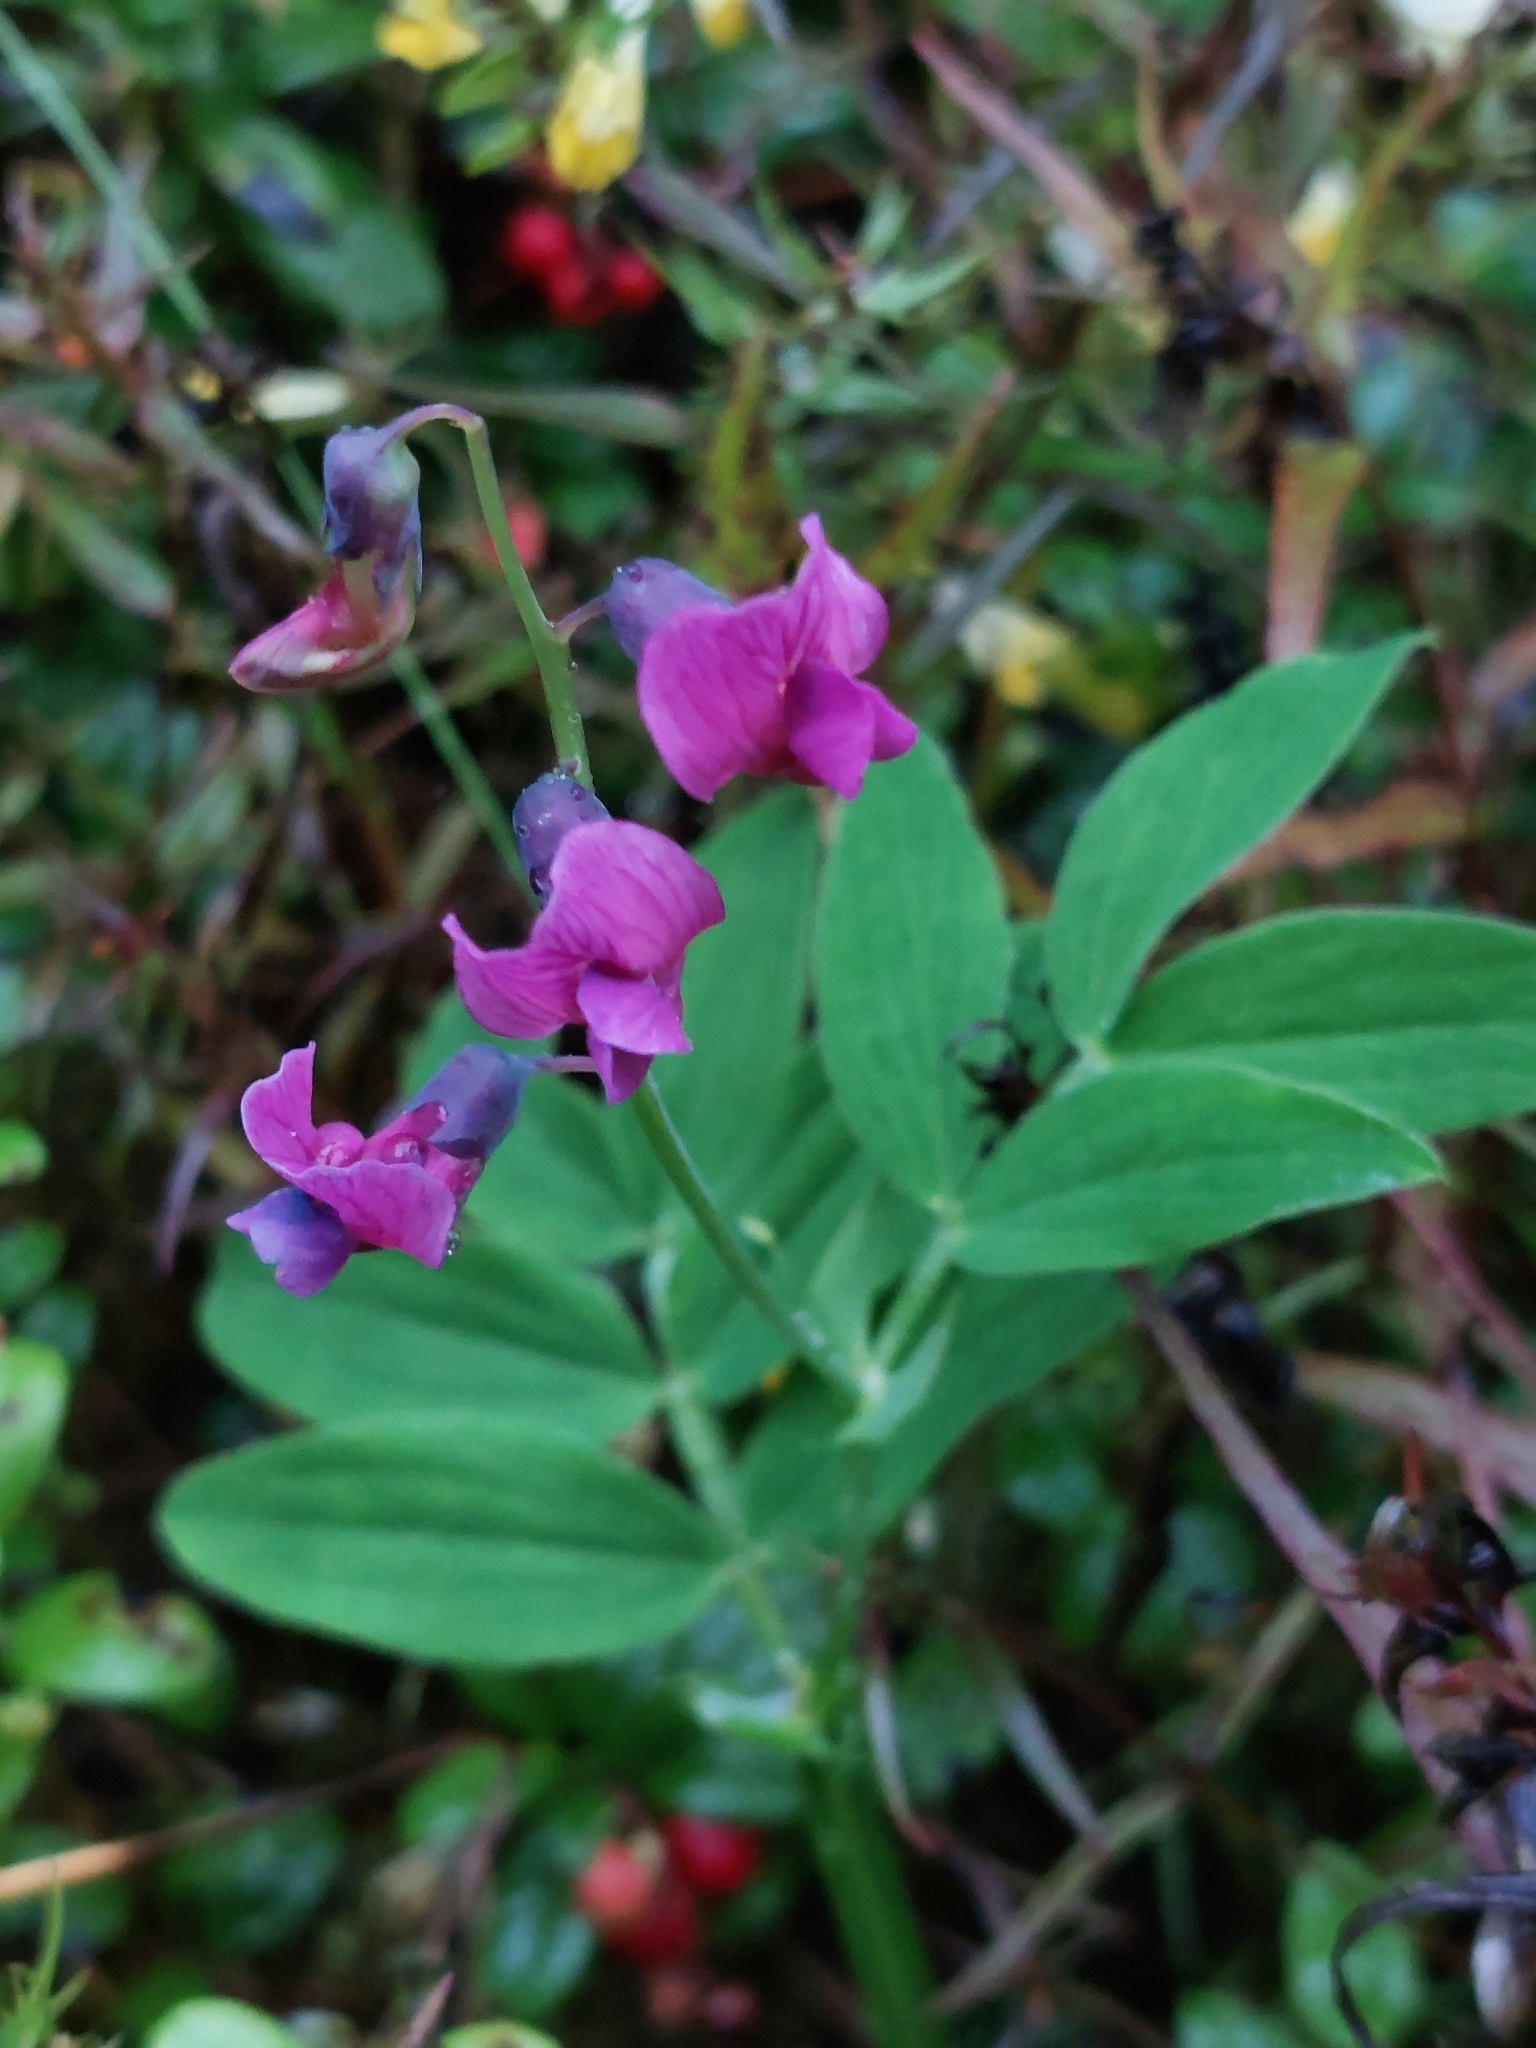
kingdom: Plantae
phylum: Tracheophyta
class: Magnoliopsida
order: Fabales
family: Fabaceae
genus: Lathyrus
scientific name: Lathyrus linifolius
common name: Bitter-vetch
